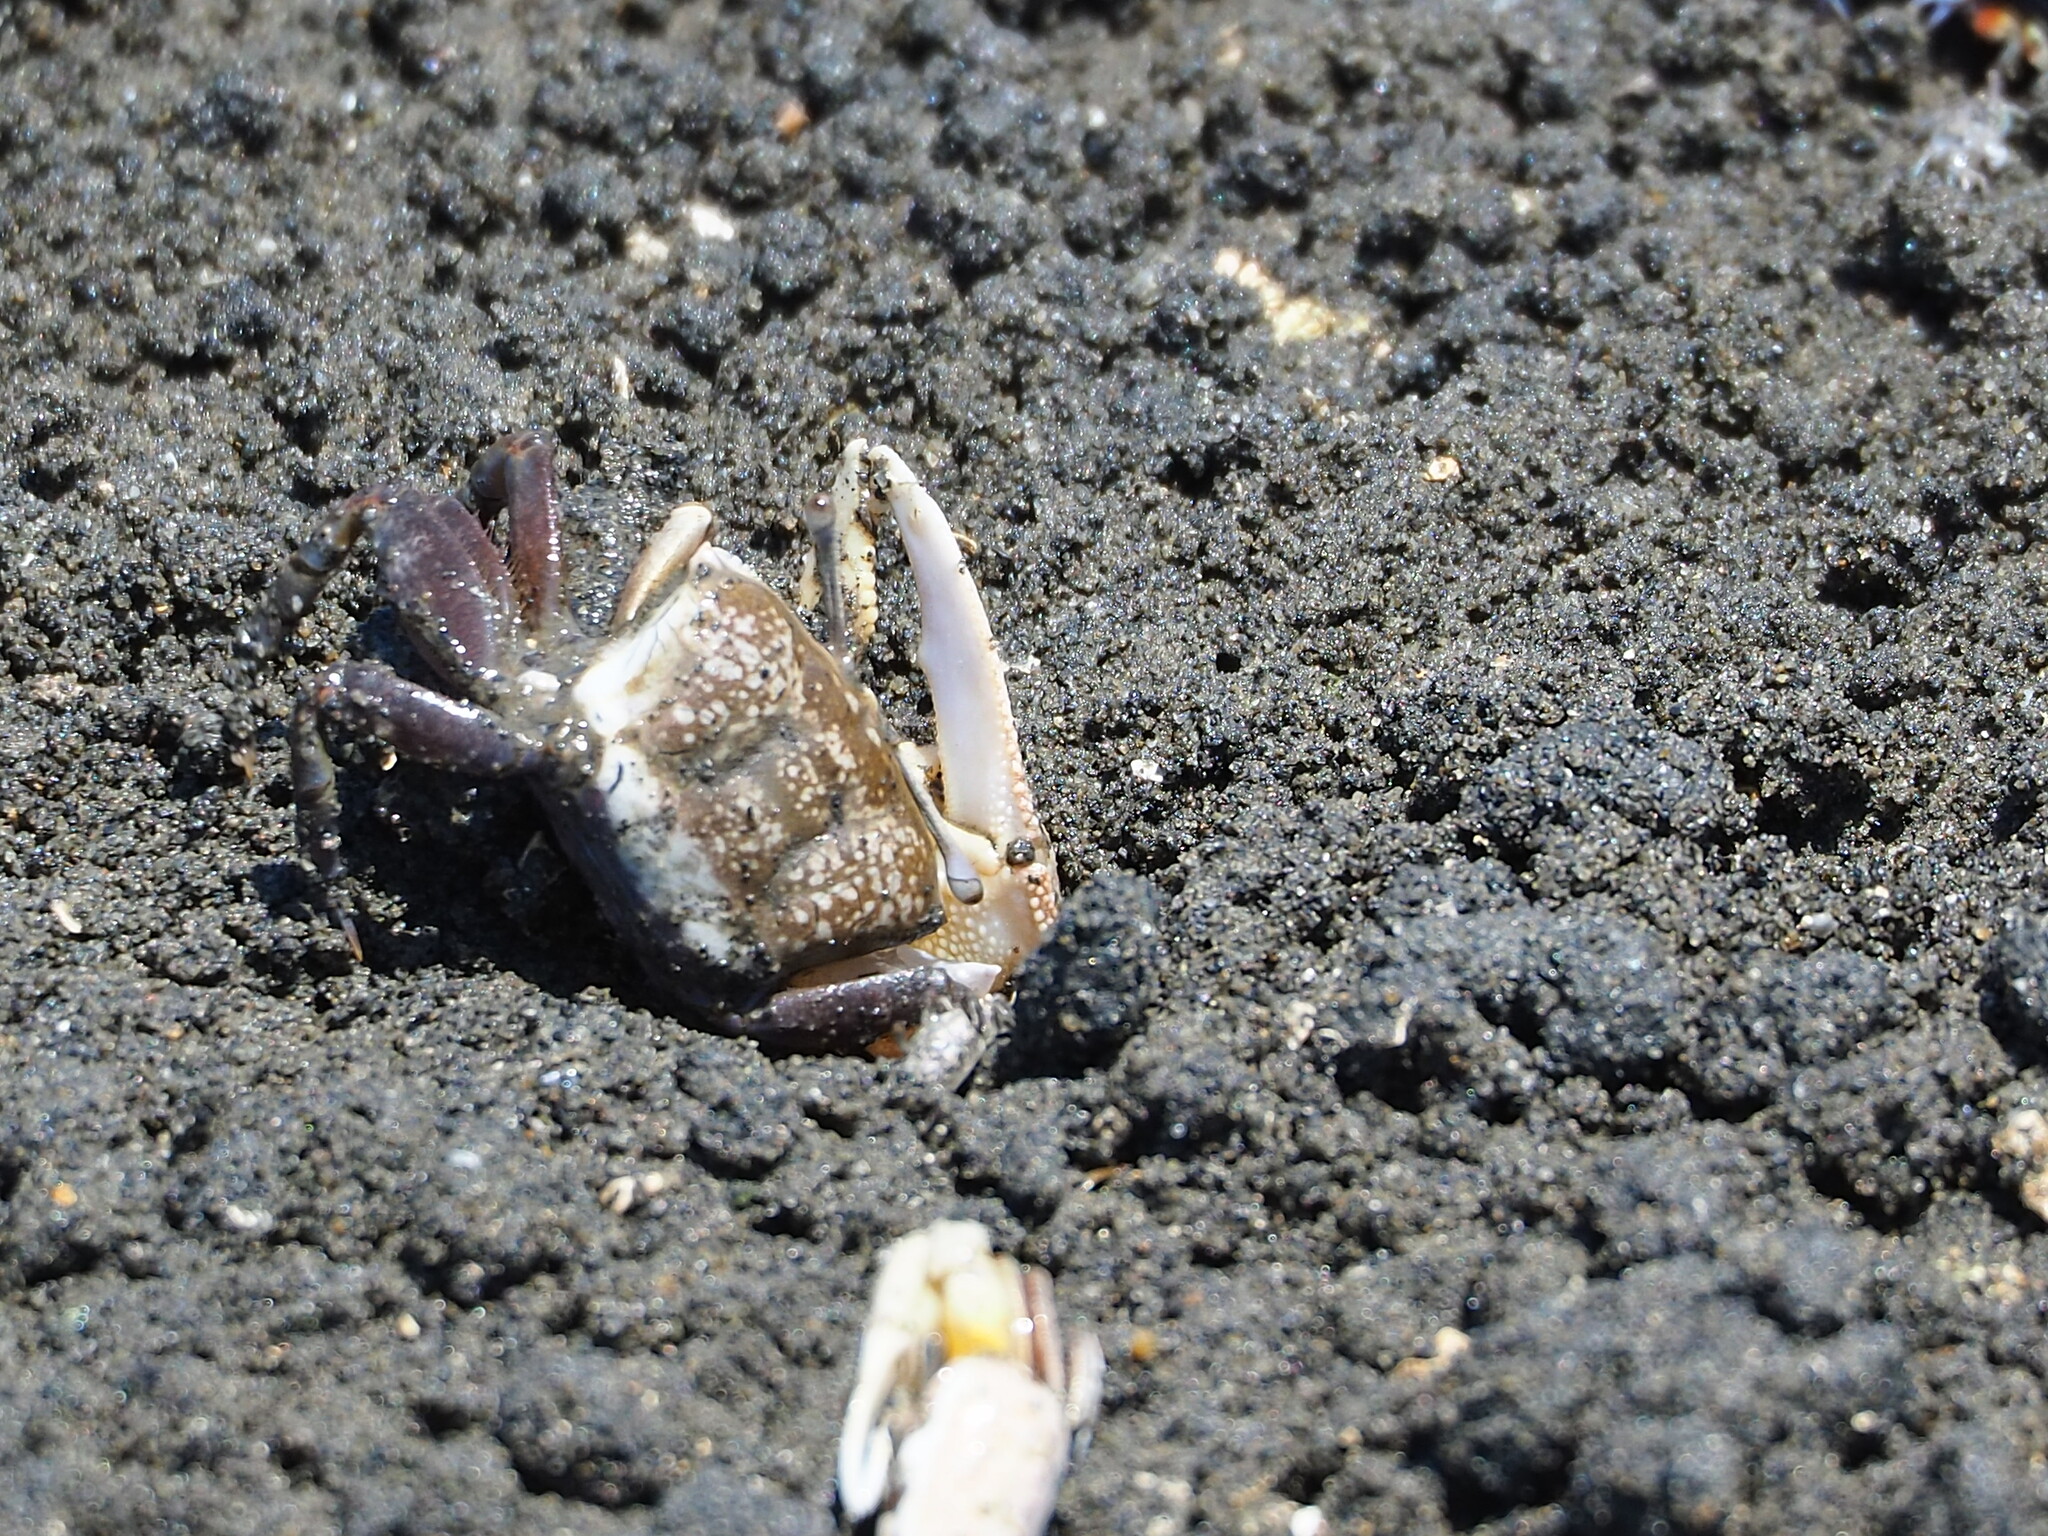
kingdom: Animalia
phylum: Arthropoda
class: Malacostraca
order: Decapoda
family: Ocypodidae
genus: Gelasimus
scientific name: Gelasimus borealis
